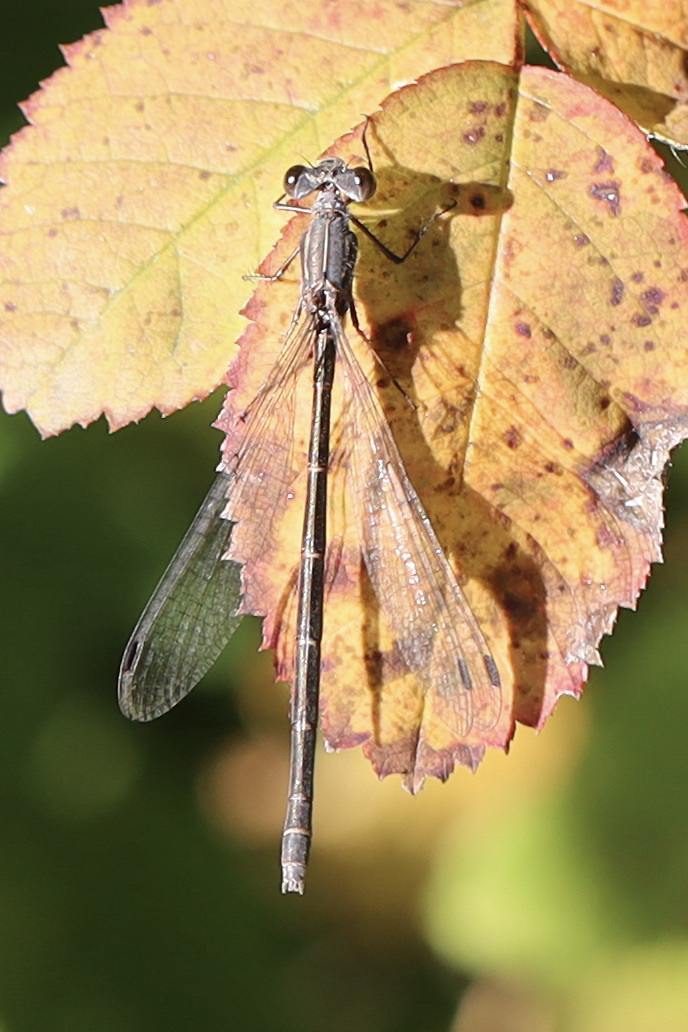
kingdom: Animalia
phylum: Arthropoda
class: Insecta
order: Odonata
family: Lestidae
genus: Lestes
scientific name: Lestes congener
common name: Spotted spreadwing
